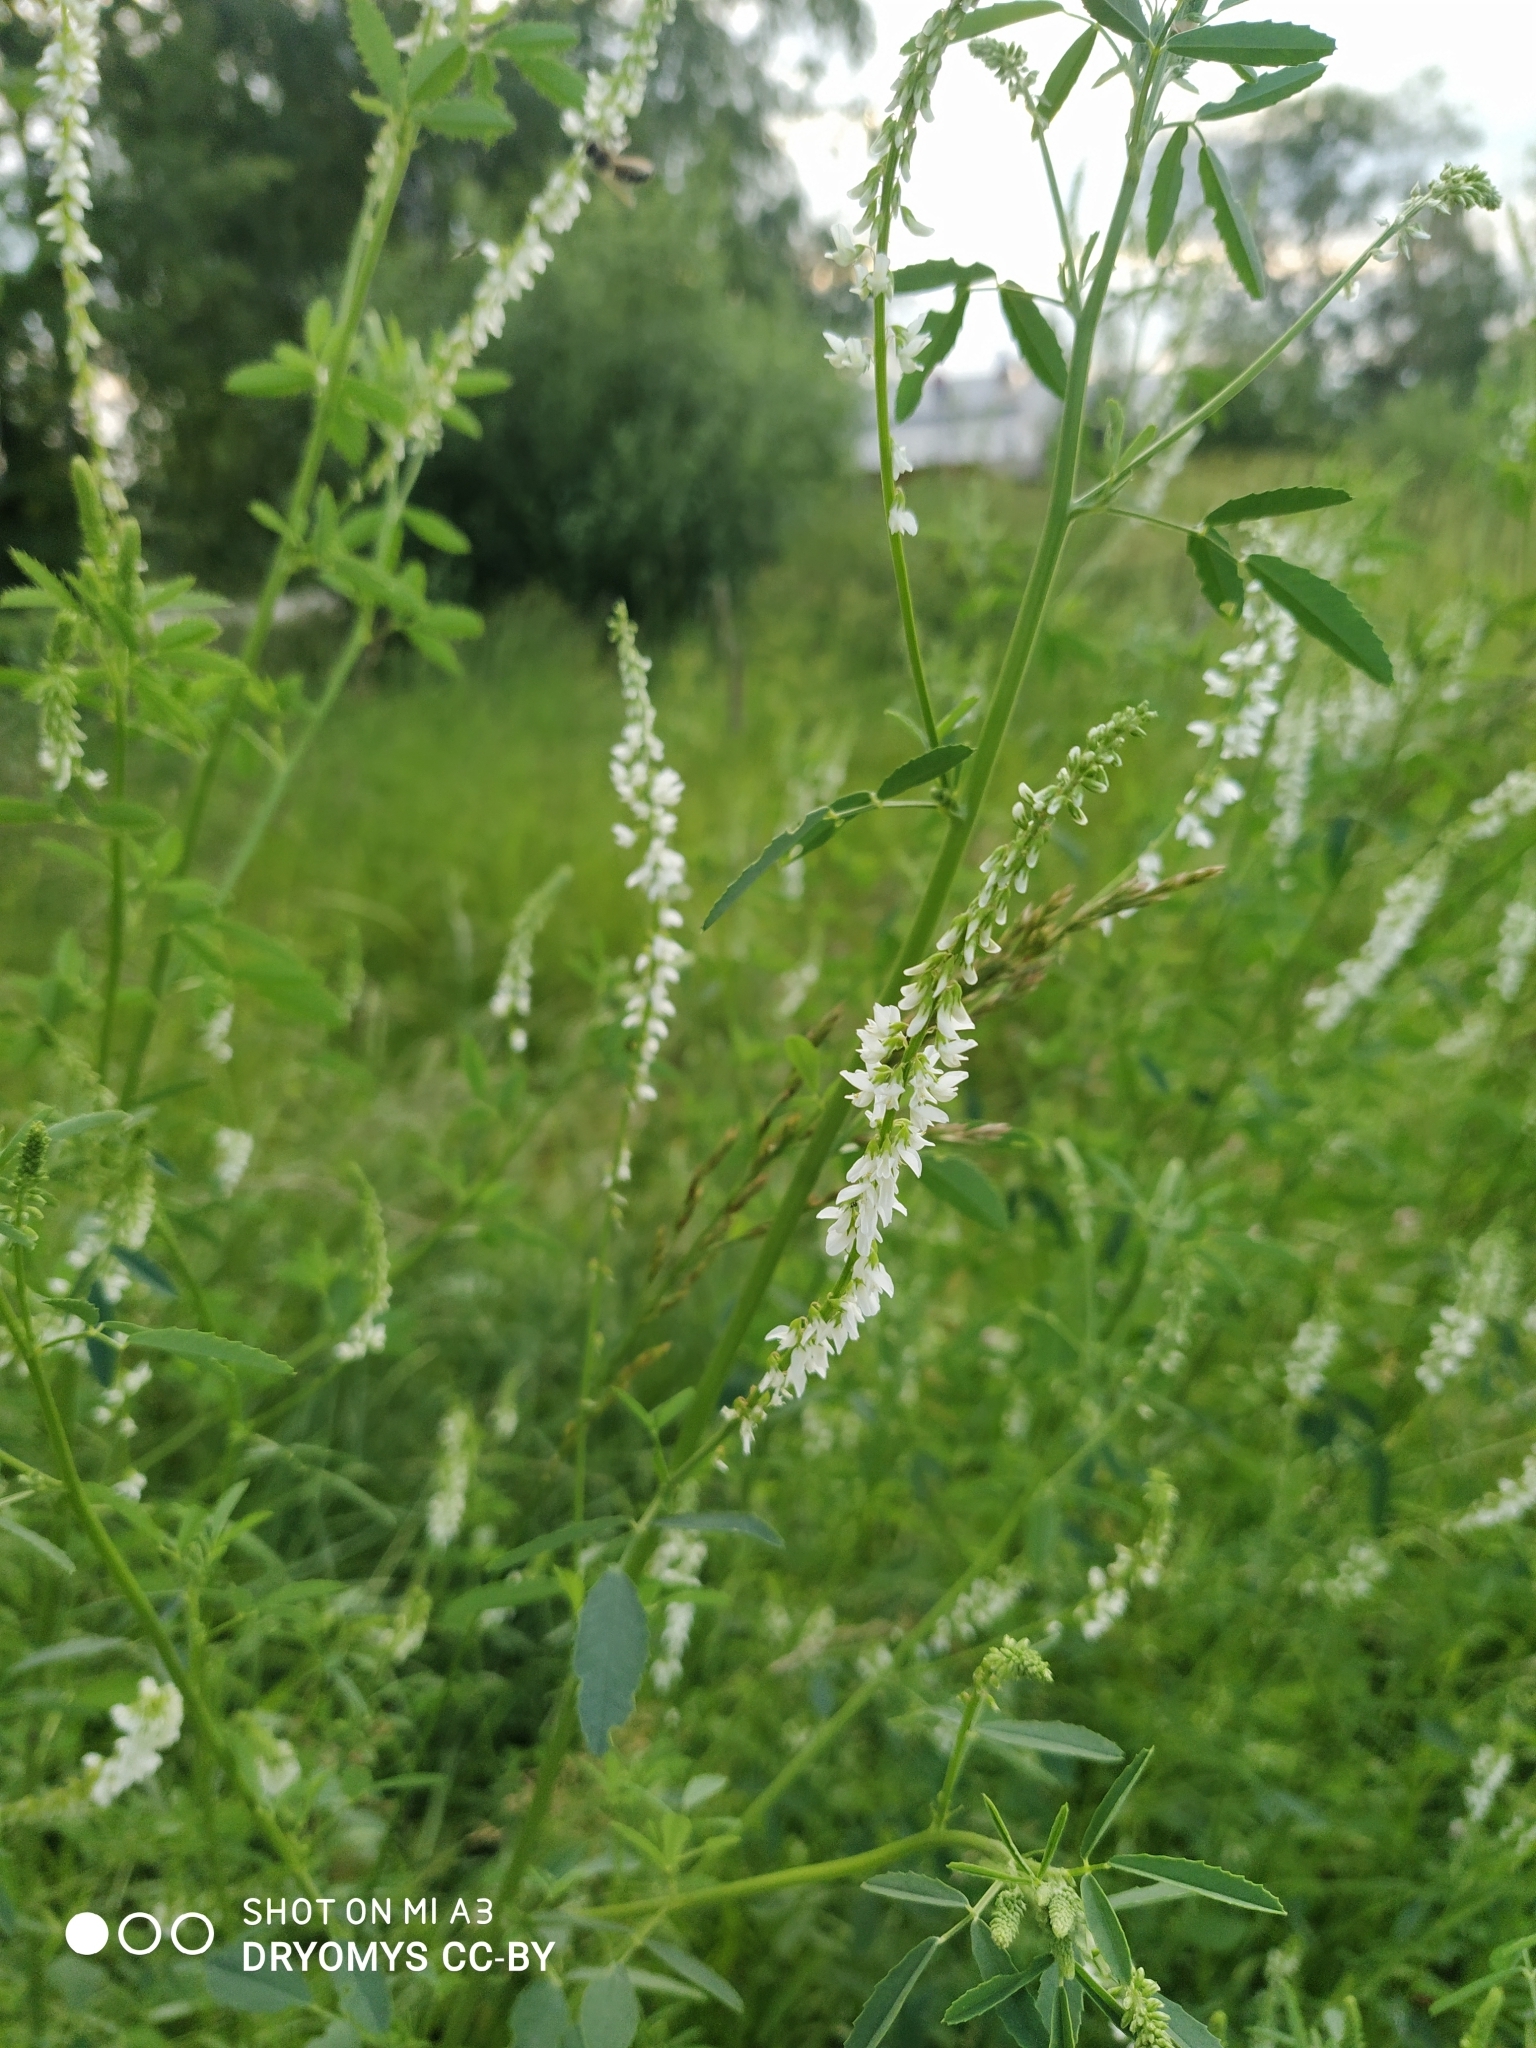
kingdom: Plantae
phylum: Tracheophyta
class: Magnoliopsida
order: Fabales
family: Fabaceae
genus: Melilotus
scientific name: Melilotus albus
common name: White melilot
